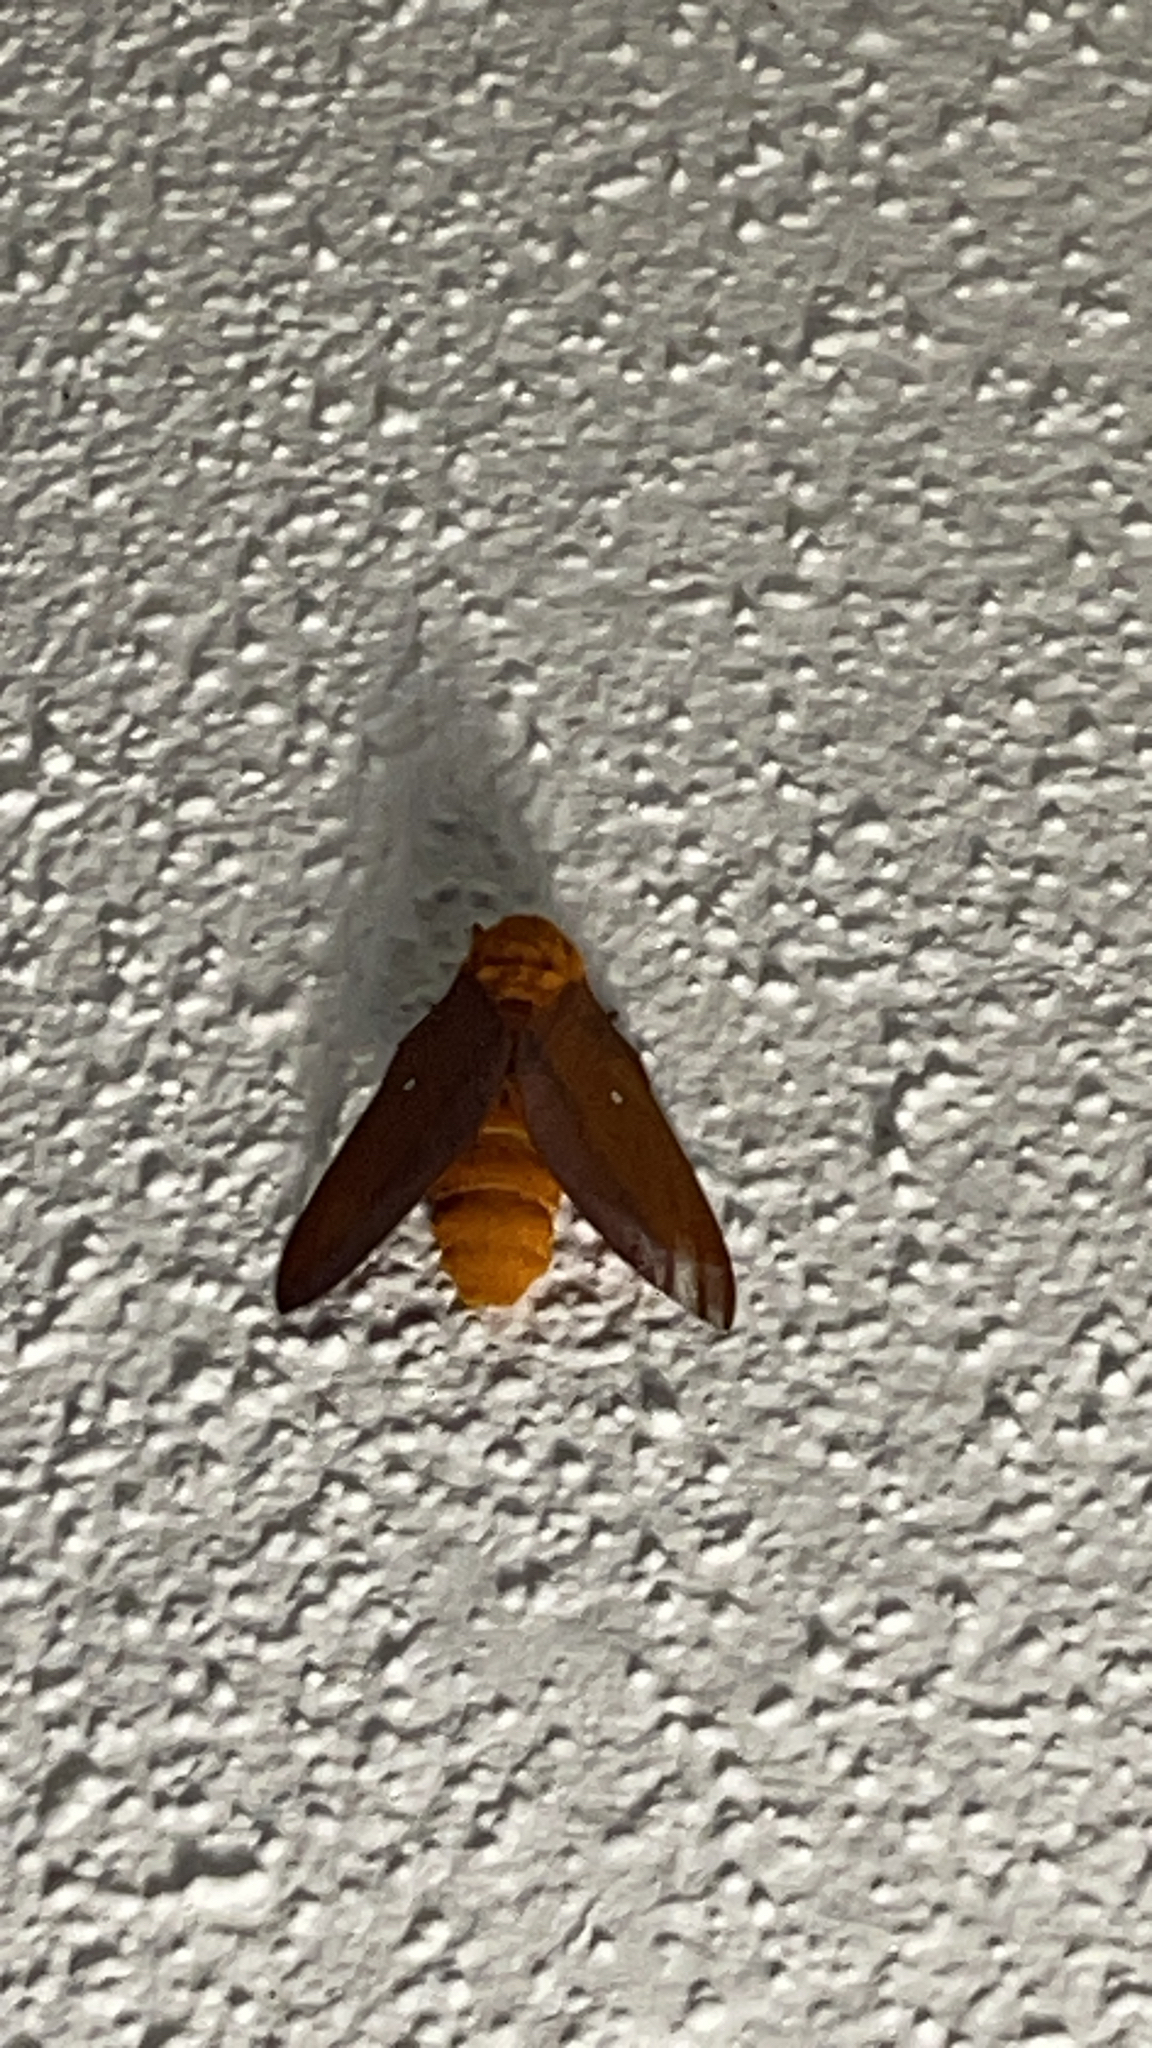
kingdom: Animalia
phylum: Arthropoda
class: Insecta
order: Lepidoptera
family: Saturniidae
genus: Anisota
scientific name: Anisota virginiensis
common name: Pink striped oakworm moth
